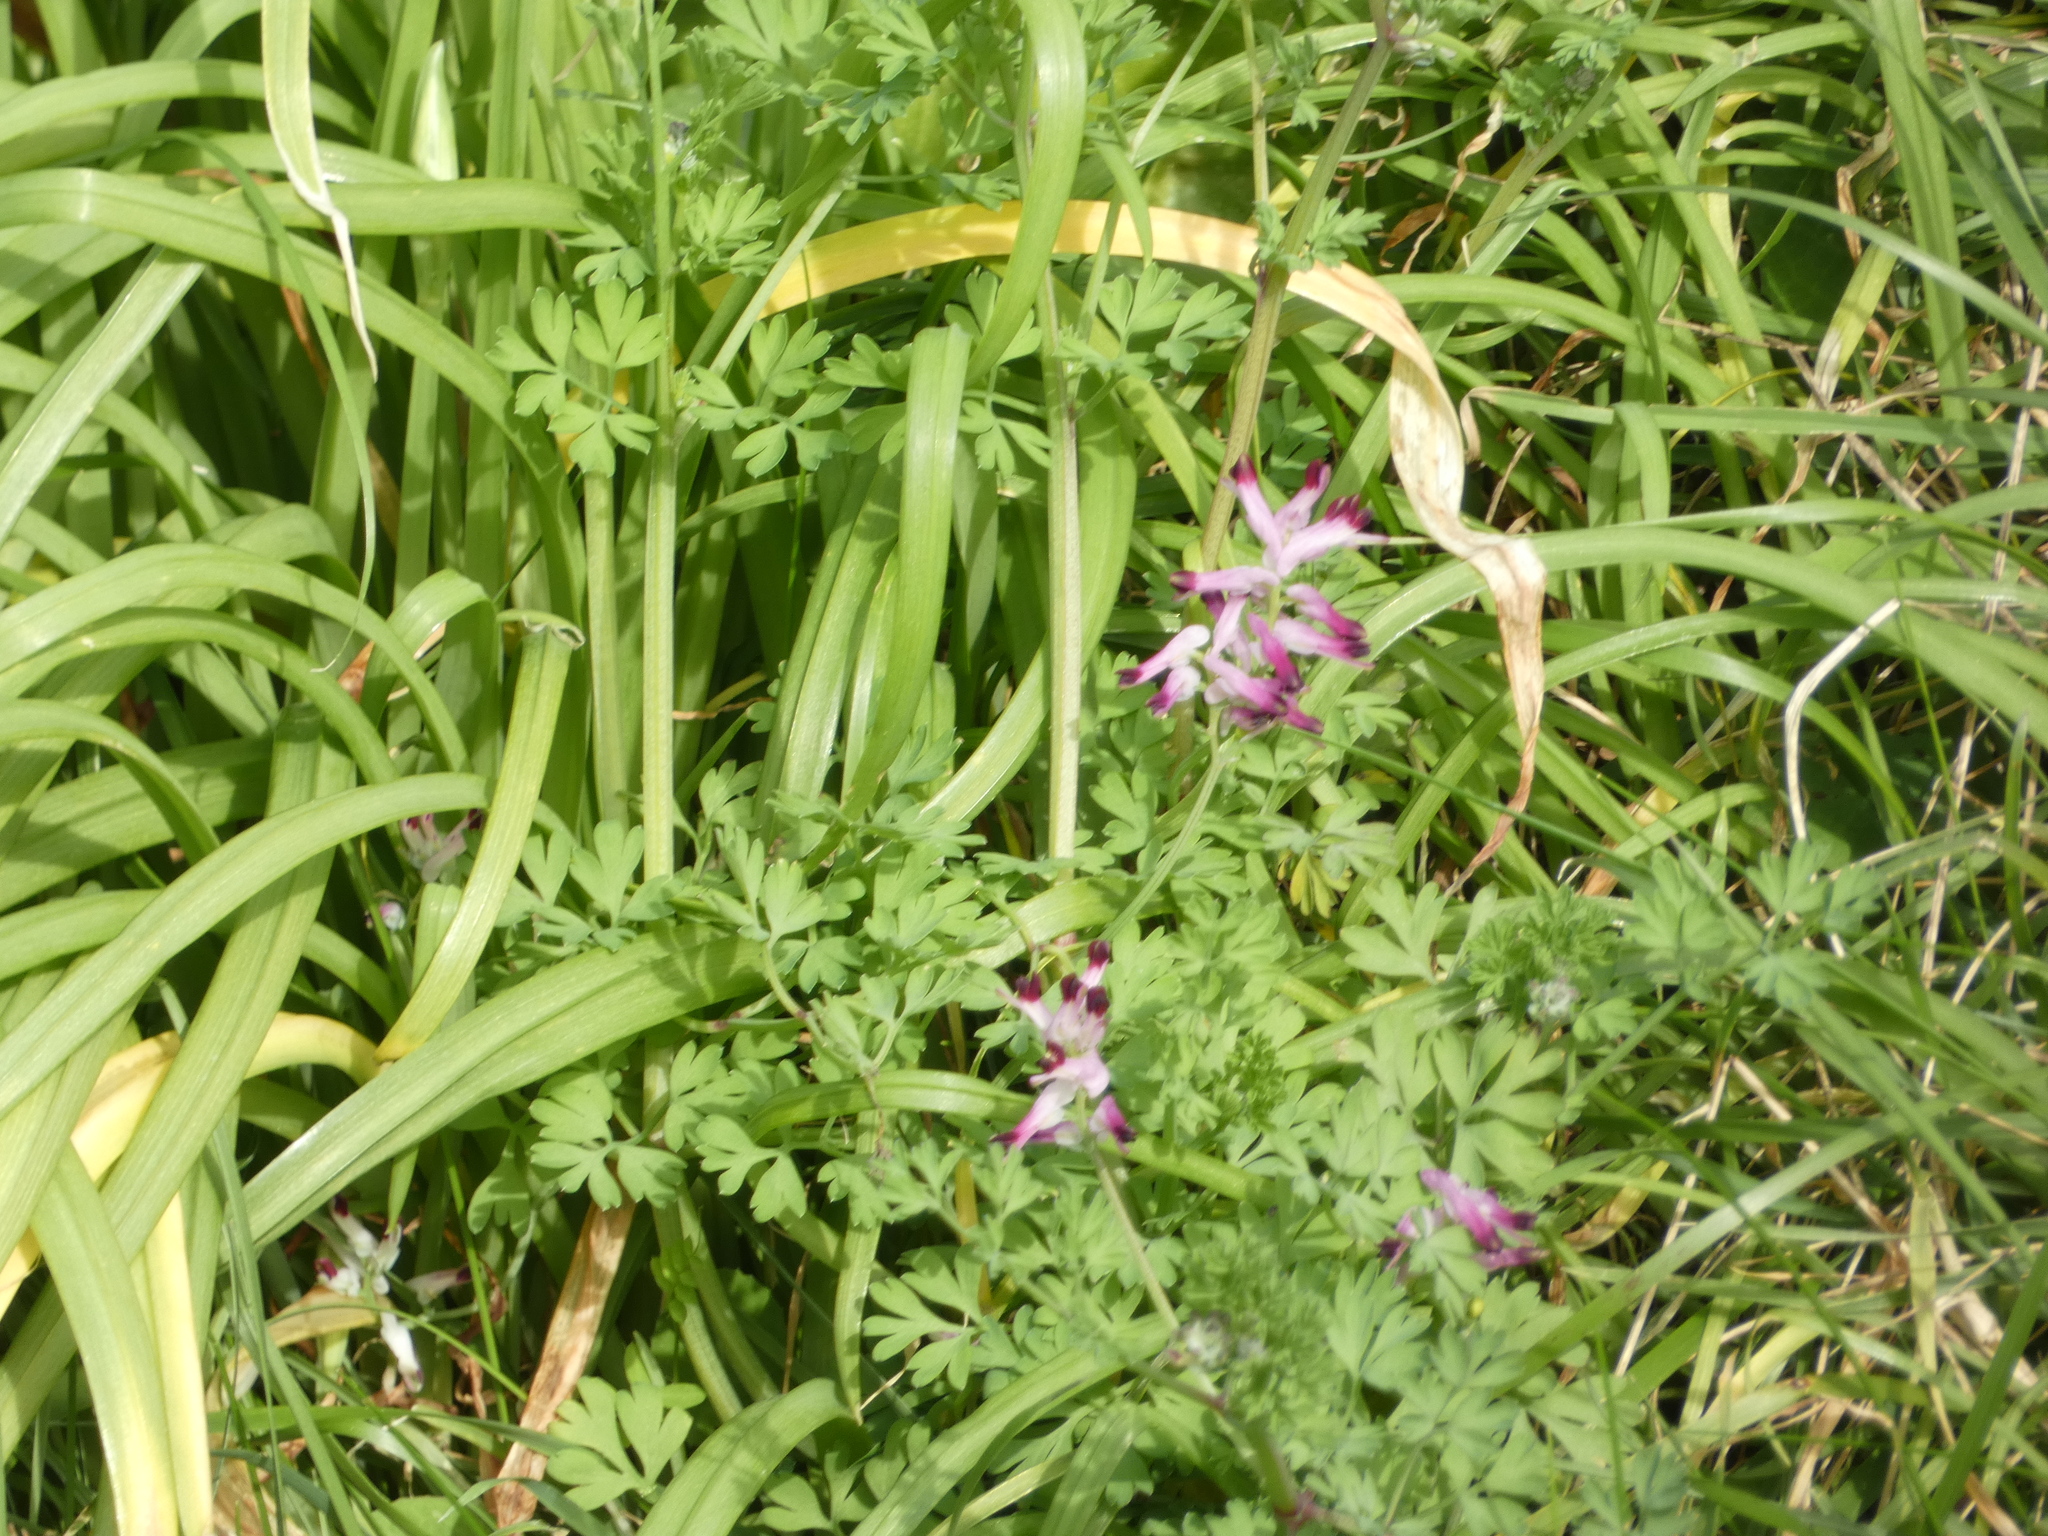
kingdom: Plantae
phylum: Tracheophyta
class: Magnoliopsida
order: Ranunculales
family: Papaveraceae
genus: Fumaria
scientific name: Fumaria muralis
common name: Common ramping-fumitory
